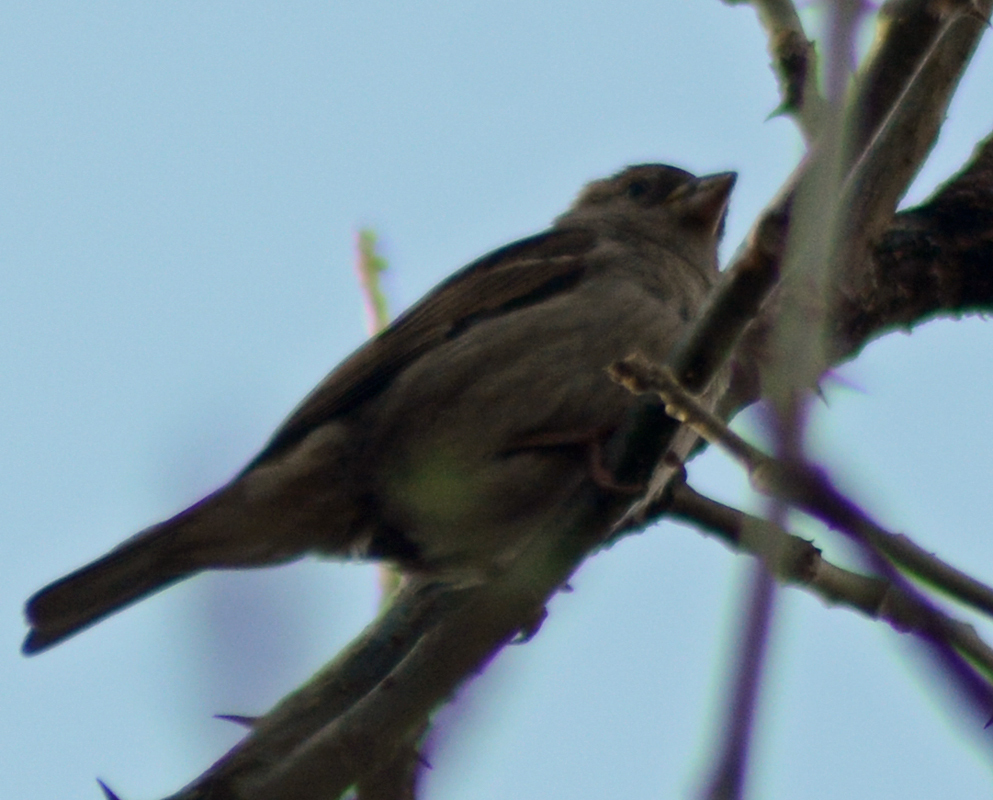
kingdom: Animalia
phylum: Chordata
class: Aves
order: Passeriformes
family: Passeridae
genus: Passer
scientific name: Passer domesticus
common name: House sparrow
